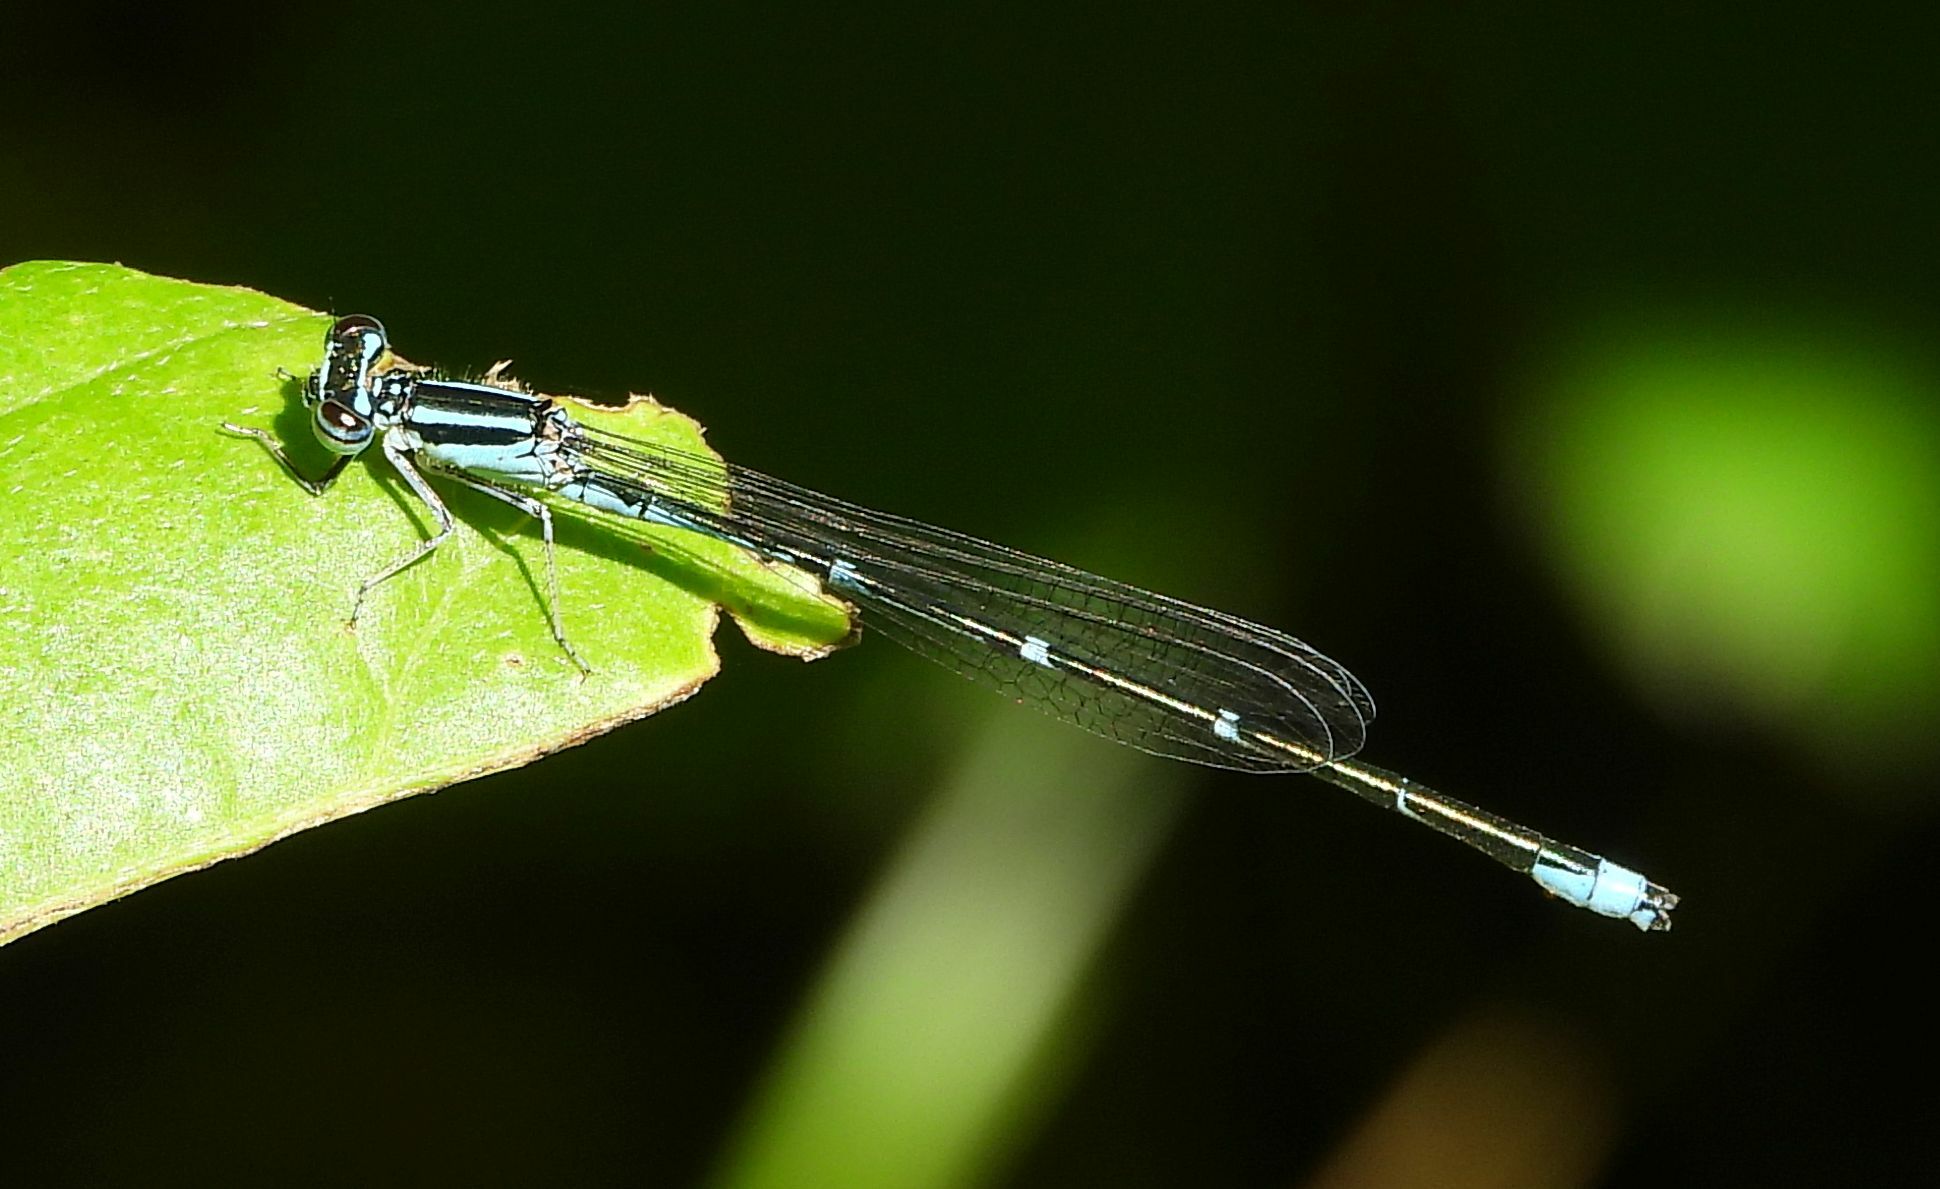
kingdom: Animalia
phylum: Arthropoda
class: Insecta
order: Odonata
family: Coenagrionidae
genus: Enallagma
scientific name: Enallagma exsulans
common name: Stream bluet
